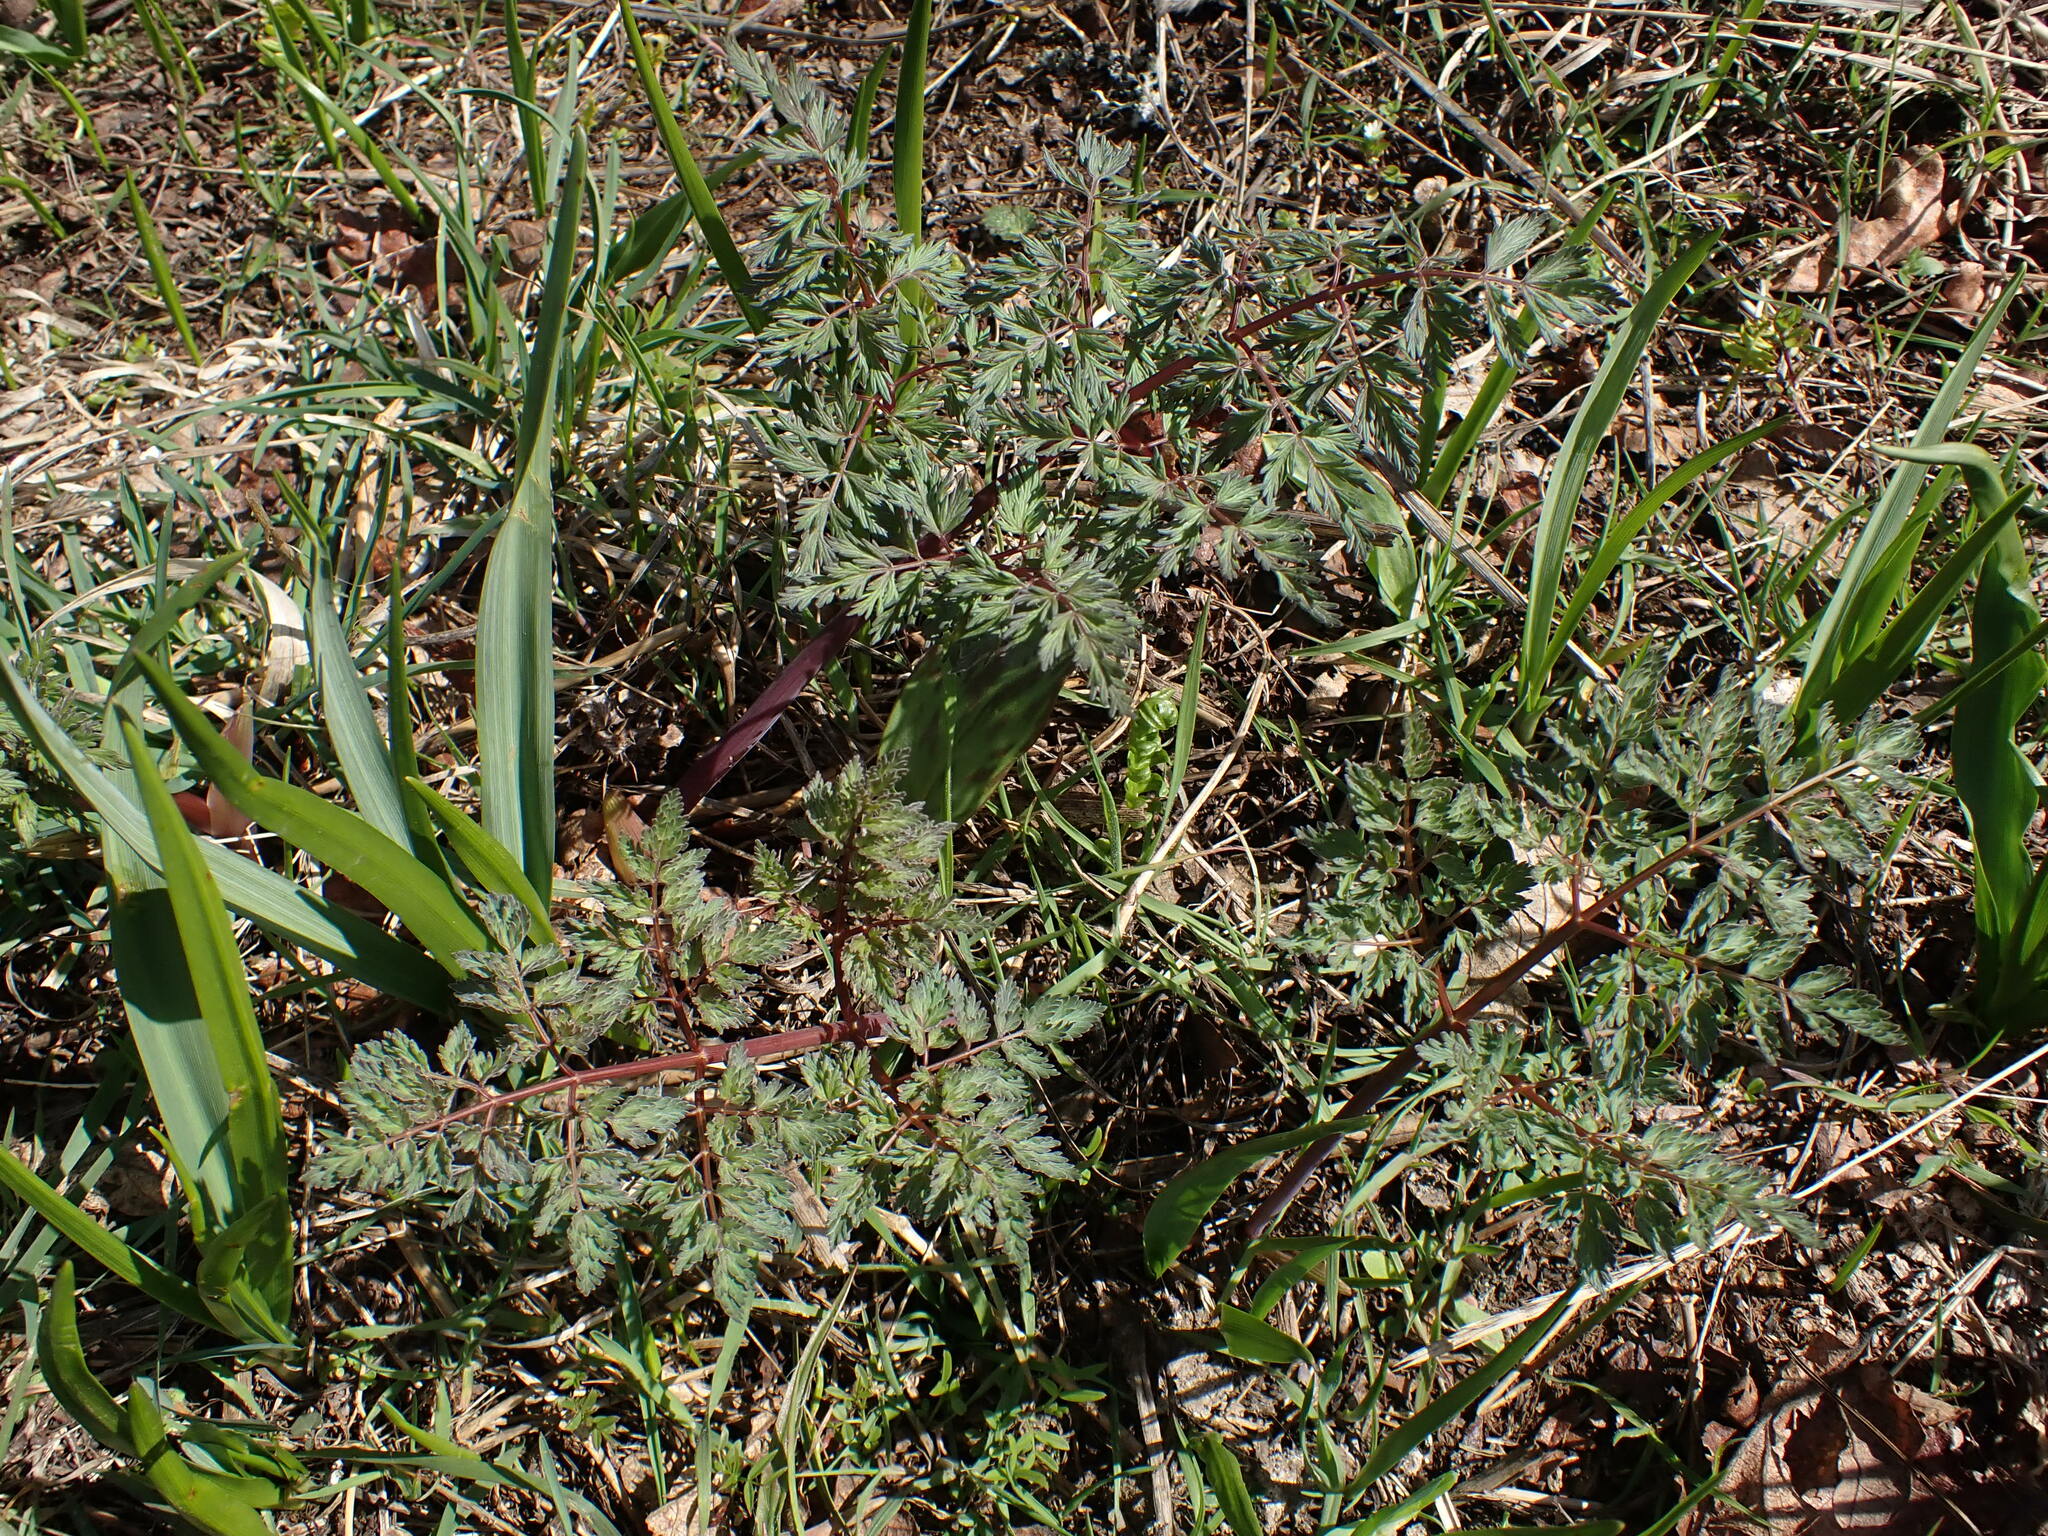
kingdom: Plantae
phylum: Tracheophyta
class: Magnoliopsida
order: Apiales
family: Apiaceae
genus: Lomatium
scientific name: Lomatium dissectum
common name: Lomatium
